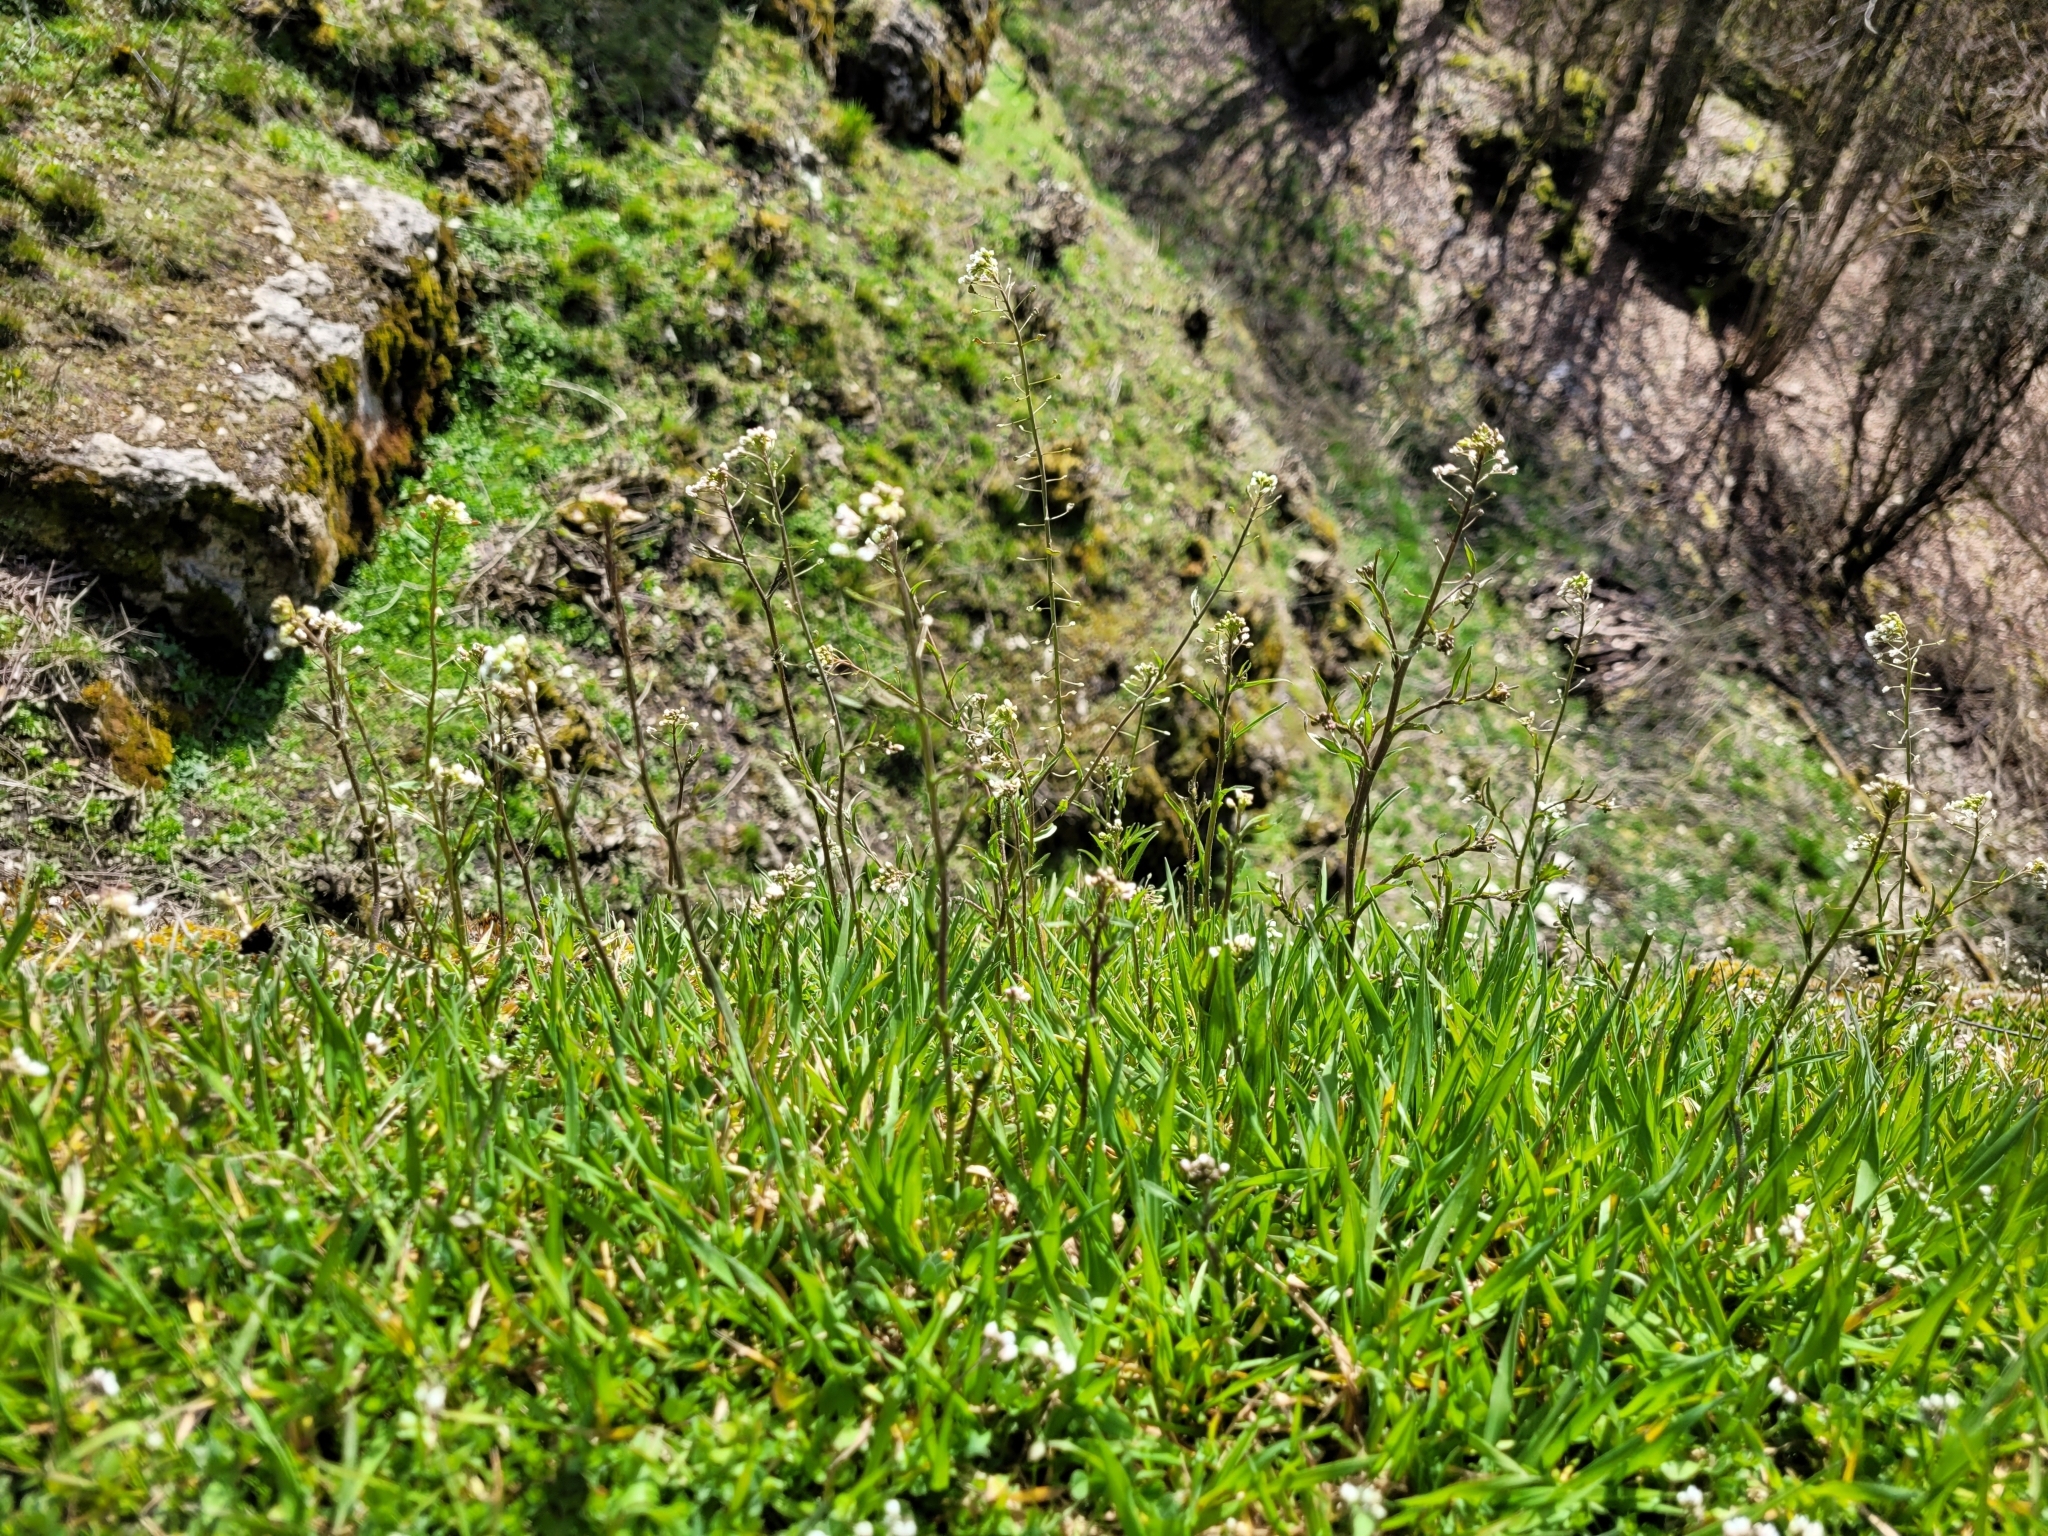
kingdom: Plantae
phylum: Tracheophyta
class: Magnoliopsida
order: Brassicales
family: Brassicaceae
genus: Capsella
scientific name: Capsella bursa-pastoris
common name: Shepherd's purse
